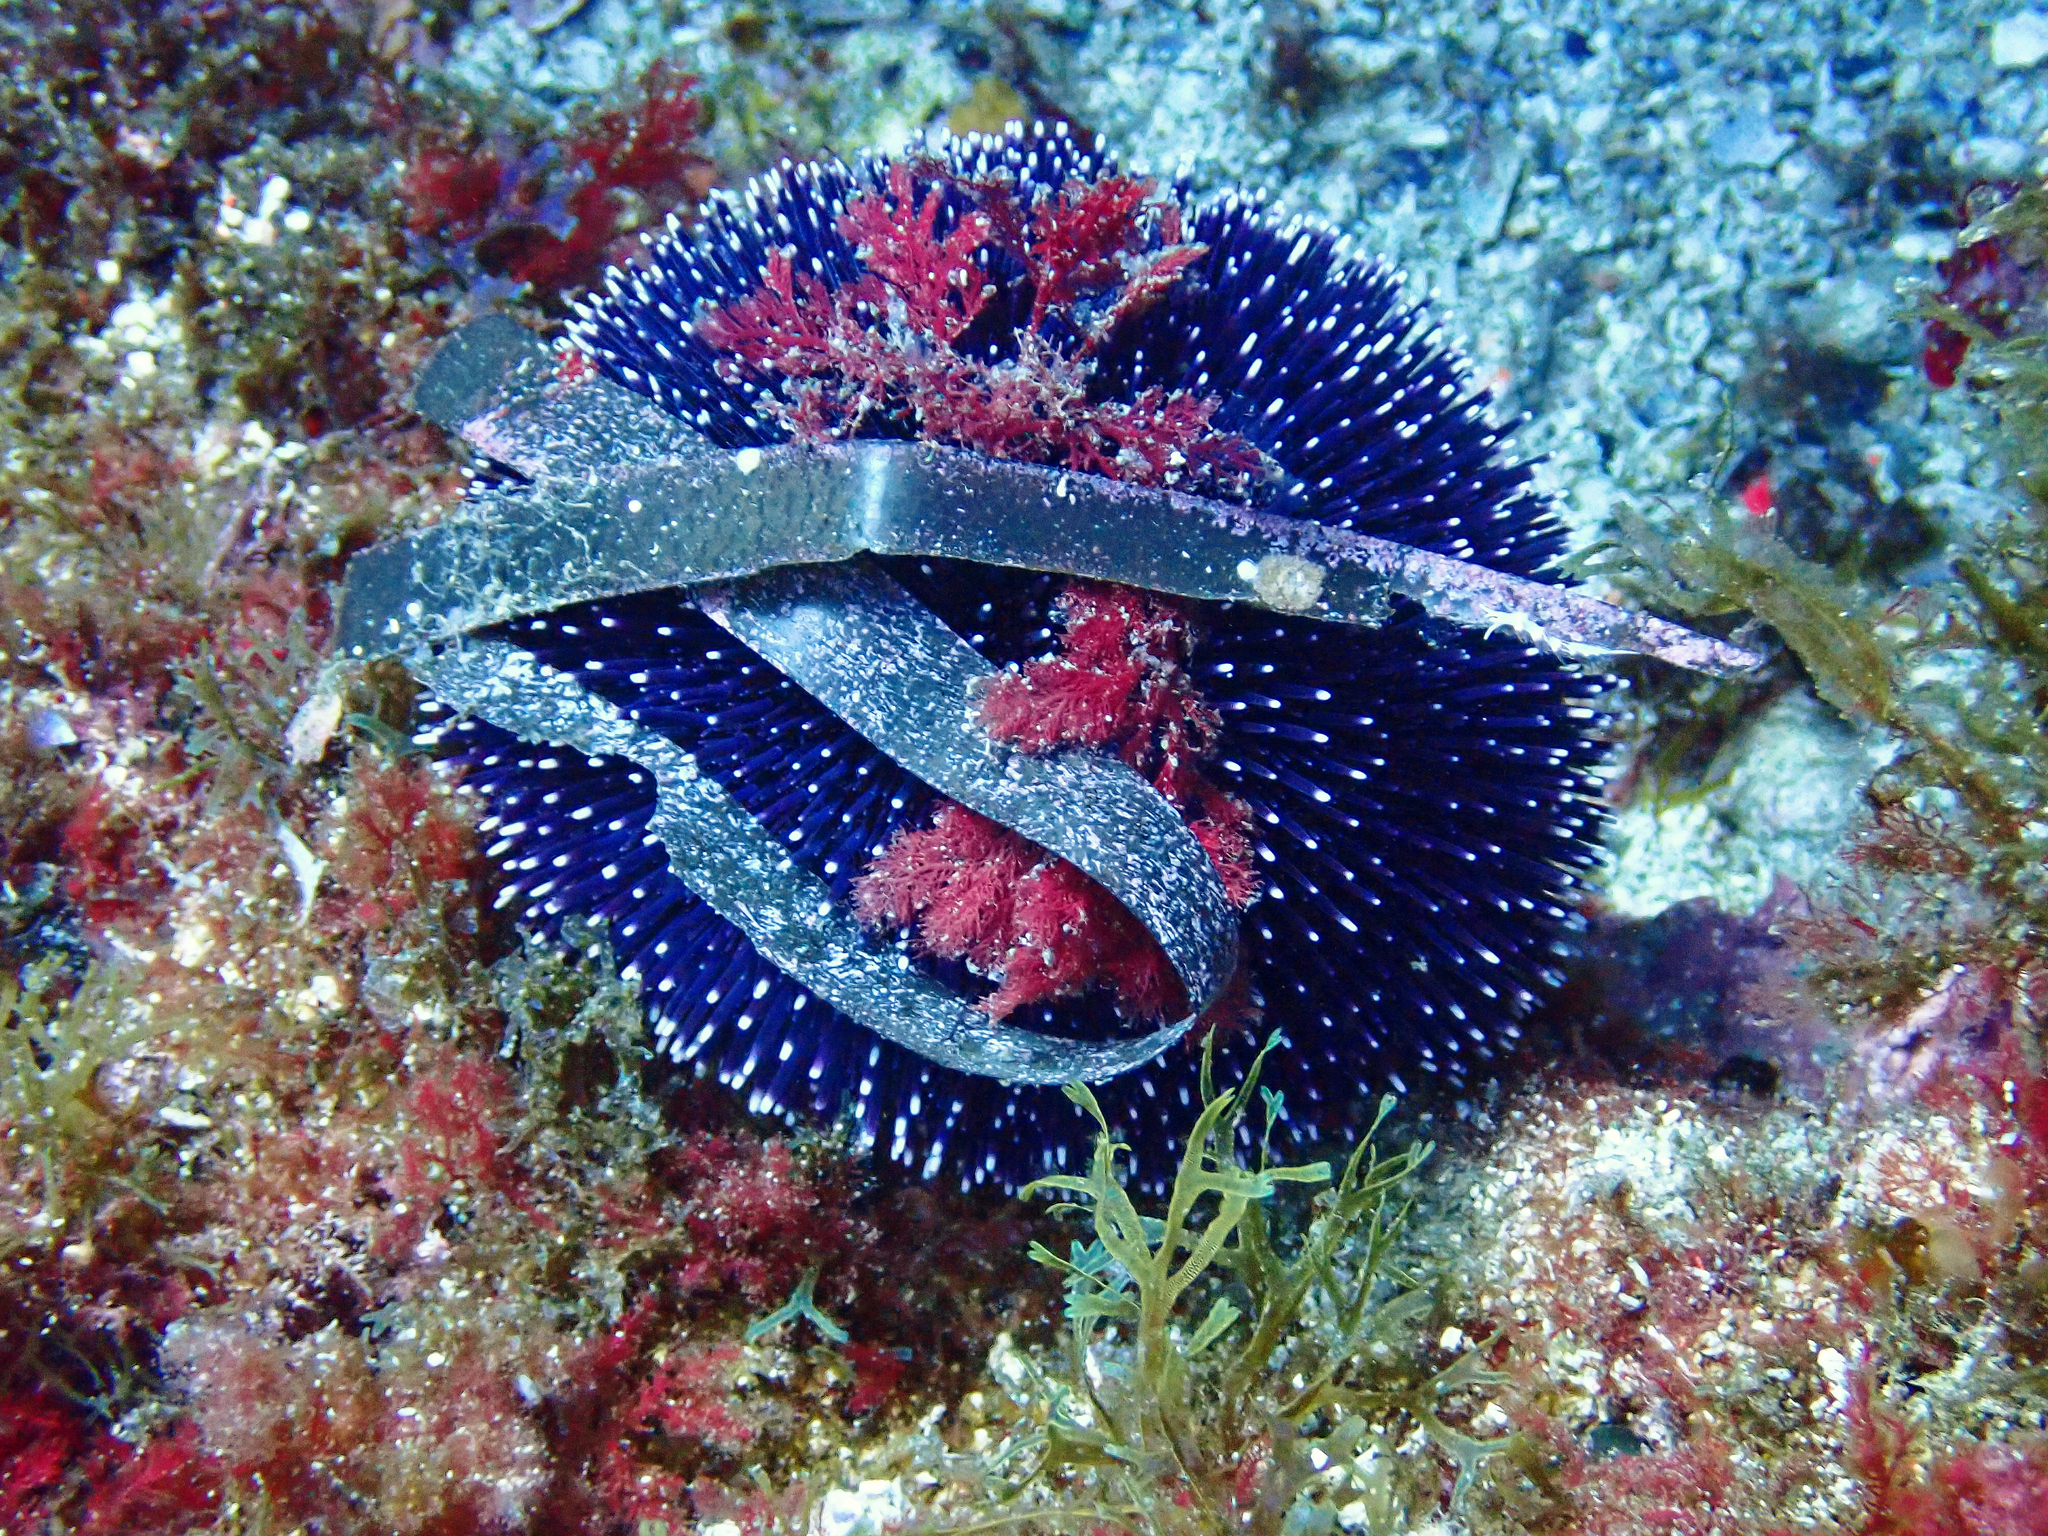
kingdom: Animalia
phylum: Echinodermata
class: Echinoidea
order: Camarodonta
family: Toxopneustidae
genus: Sphaerechinus
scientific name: Sphaerechinus granularis
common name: Violet sea urchin
